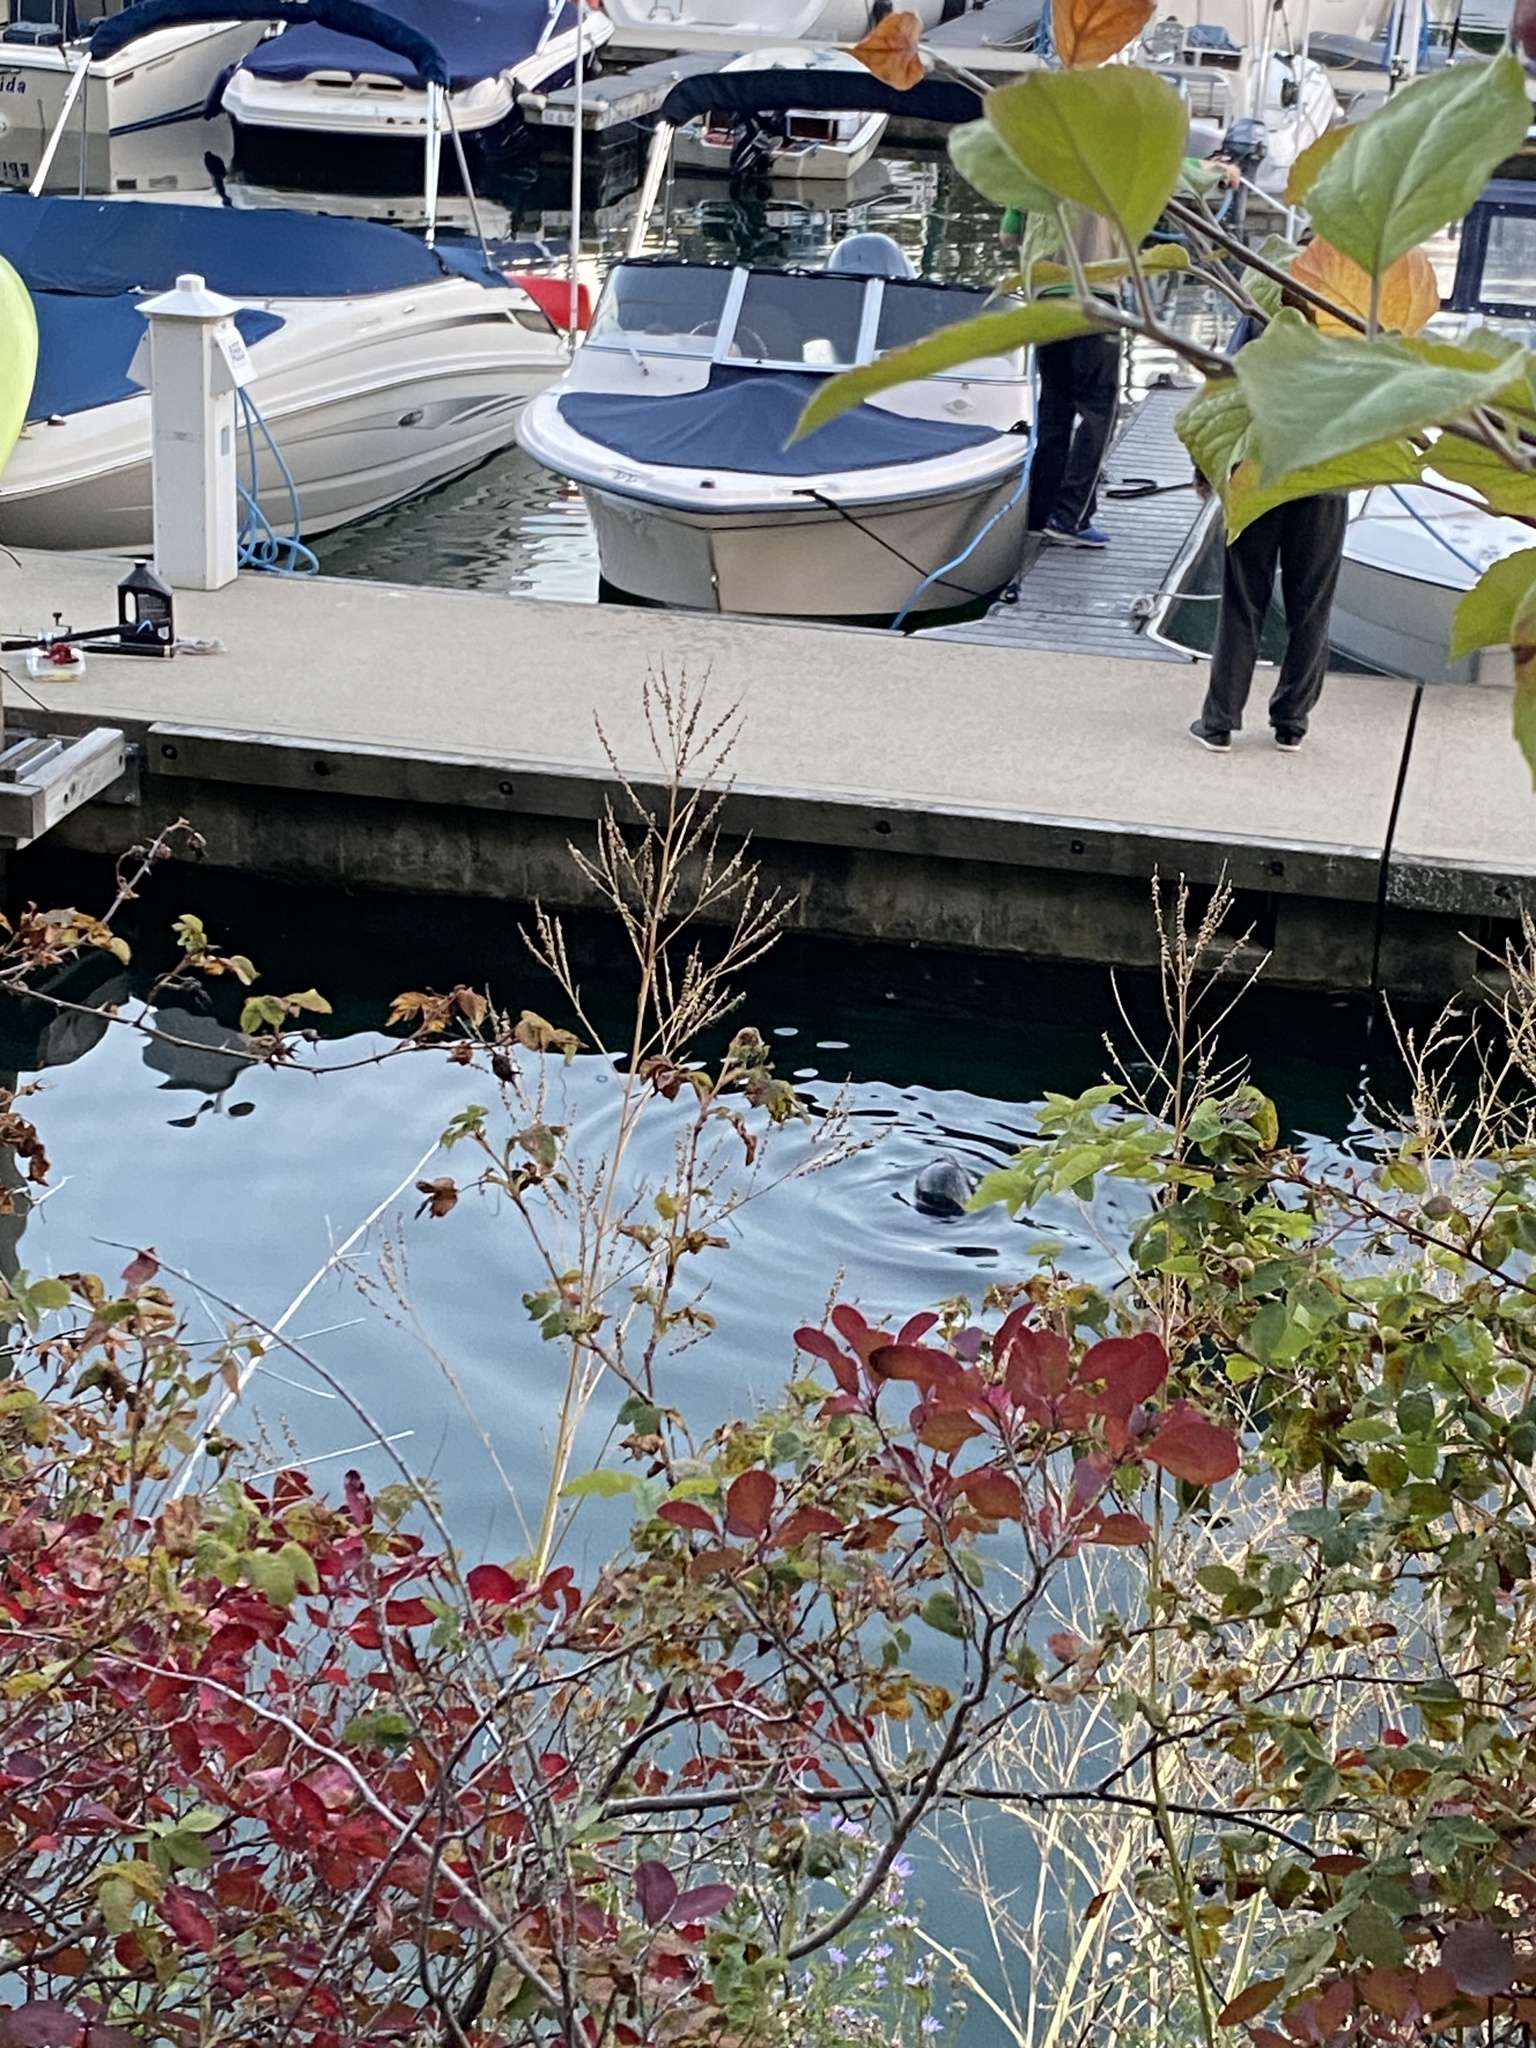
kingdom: Animalia
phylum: Chordata
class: Mammalia
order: Carnivora
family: Phocidae
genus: Phoca
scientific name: Phoca vitulina
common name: Harbor seal
